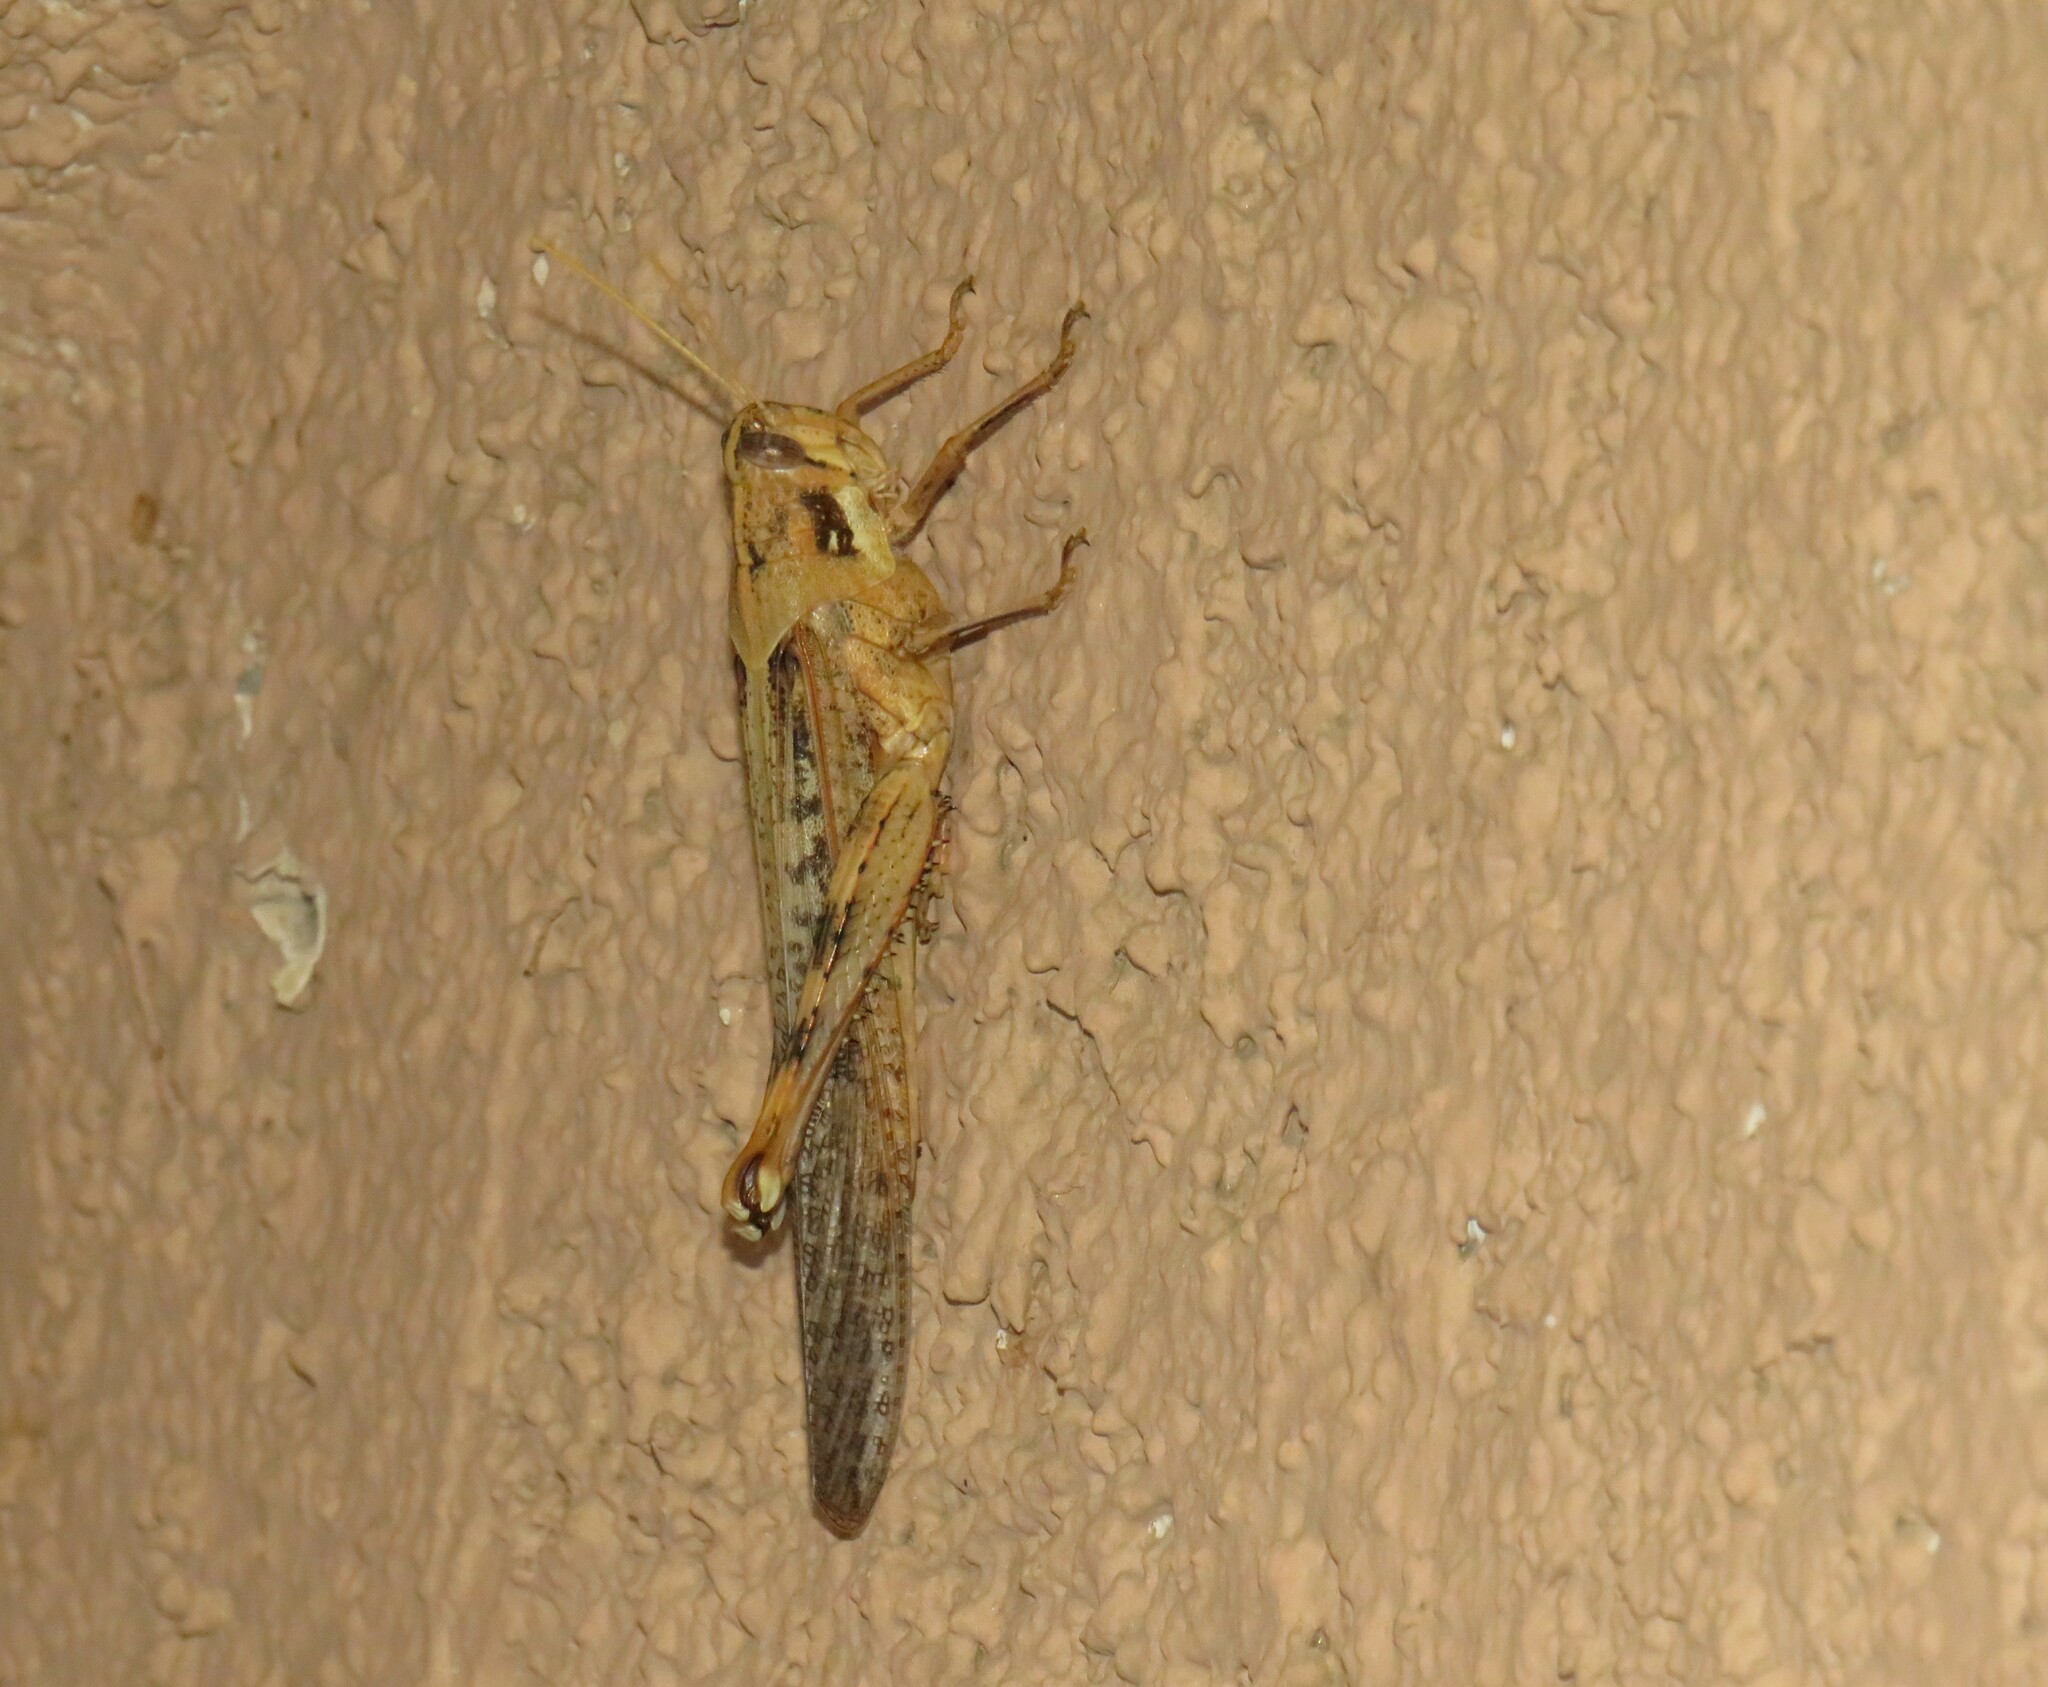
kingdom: Animalia
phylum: Arthropoda
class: Insecta
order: Orthoptera
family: Acrididae
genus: Schistocerca
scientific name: Schistocerca nitens
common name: Vagrant grasshopper
